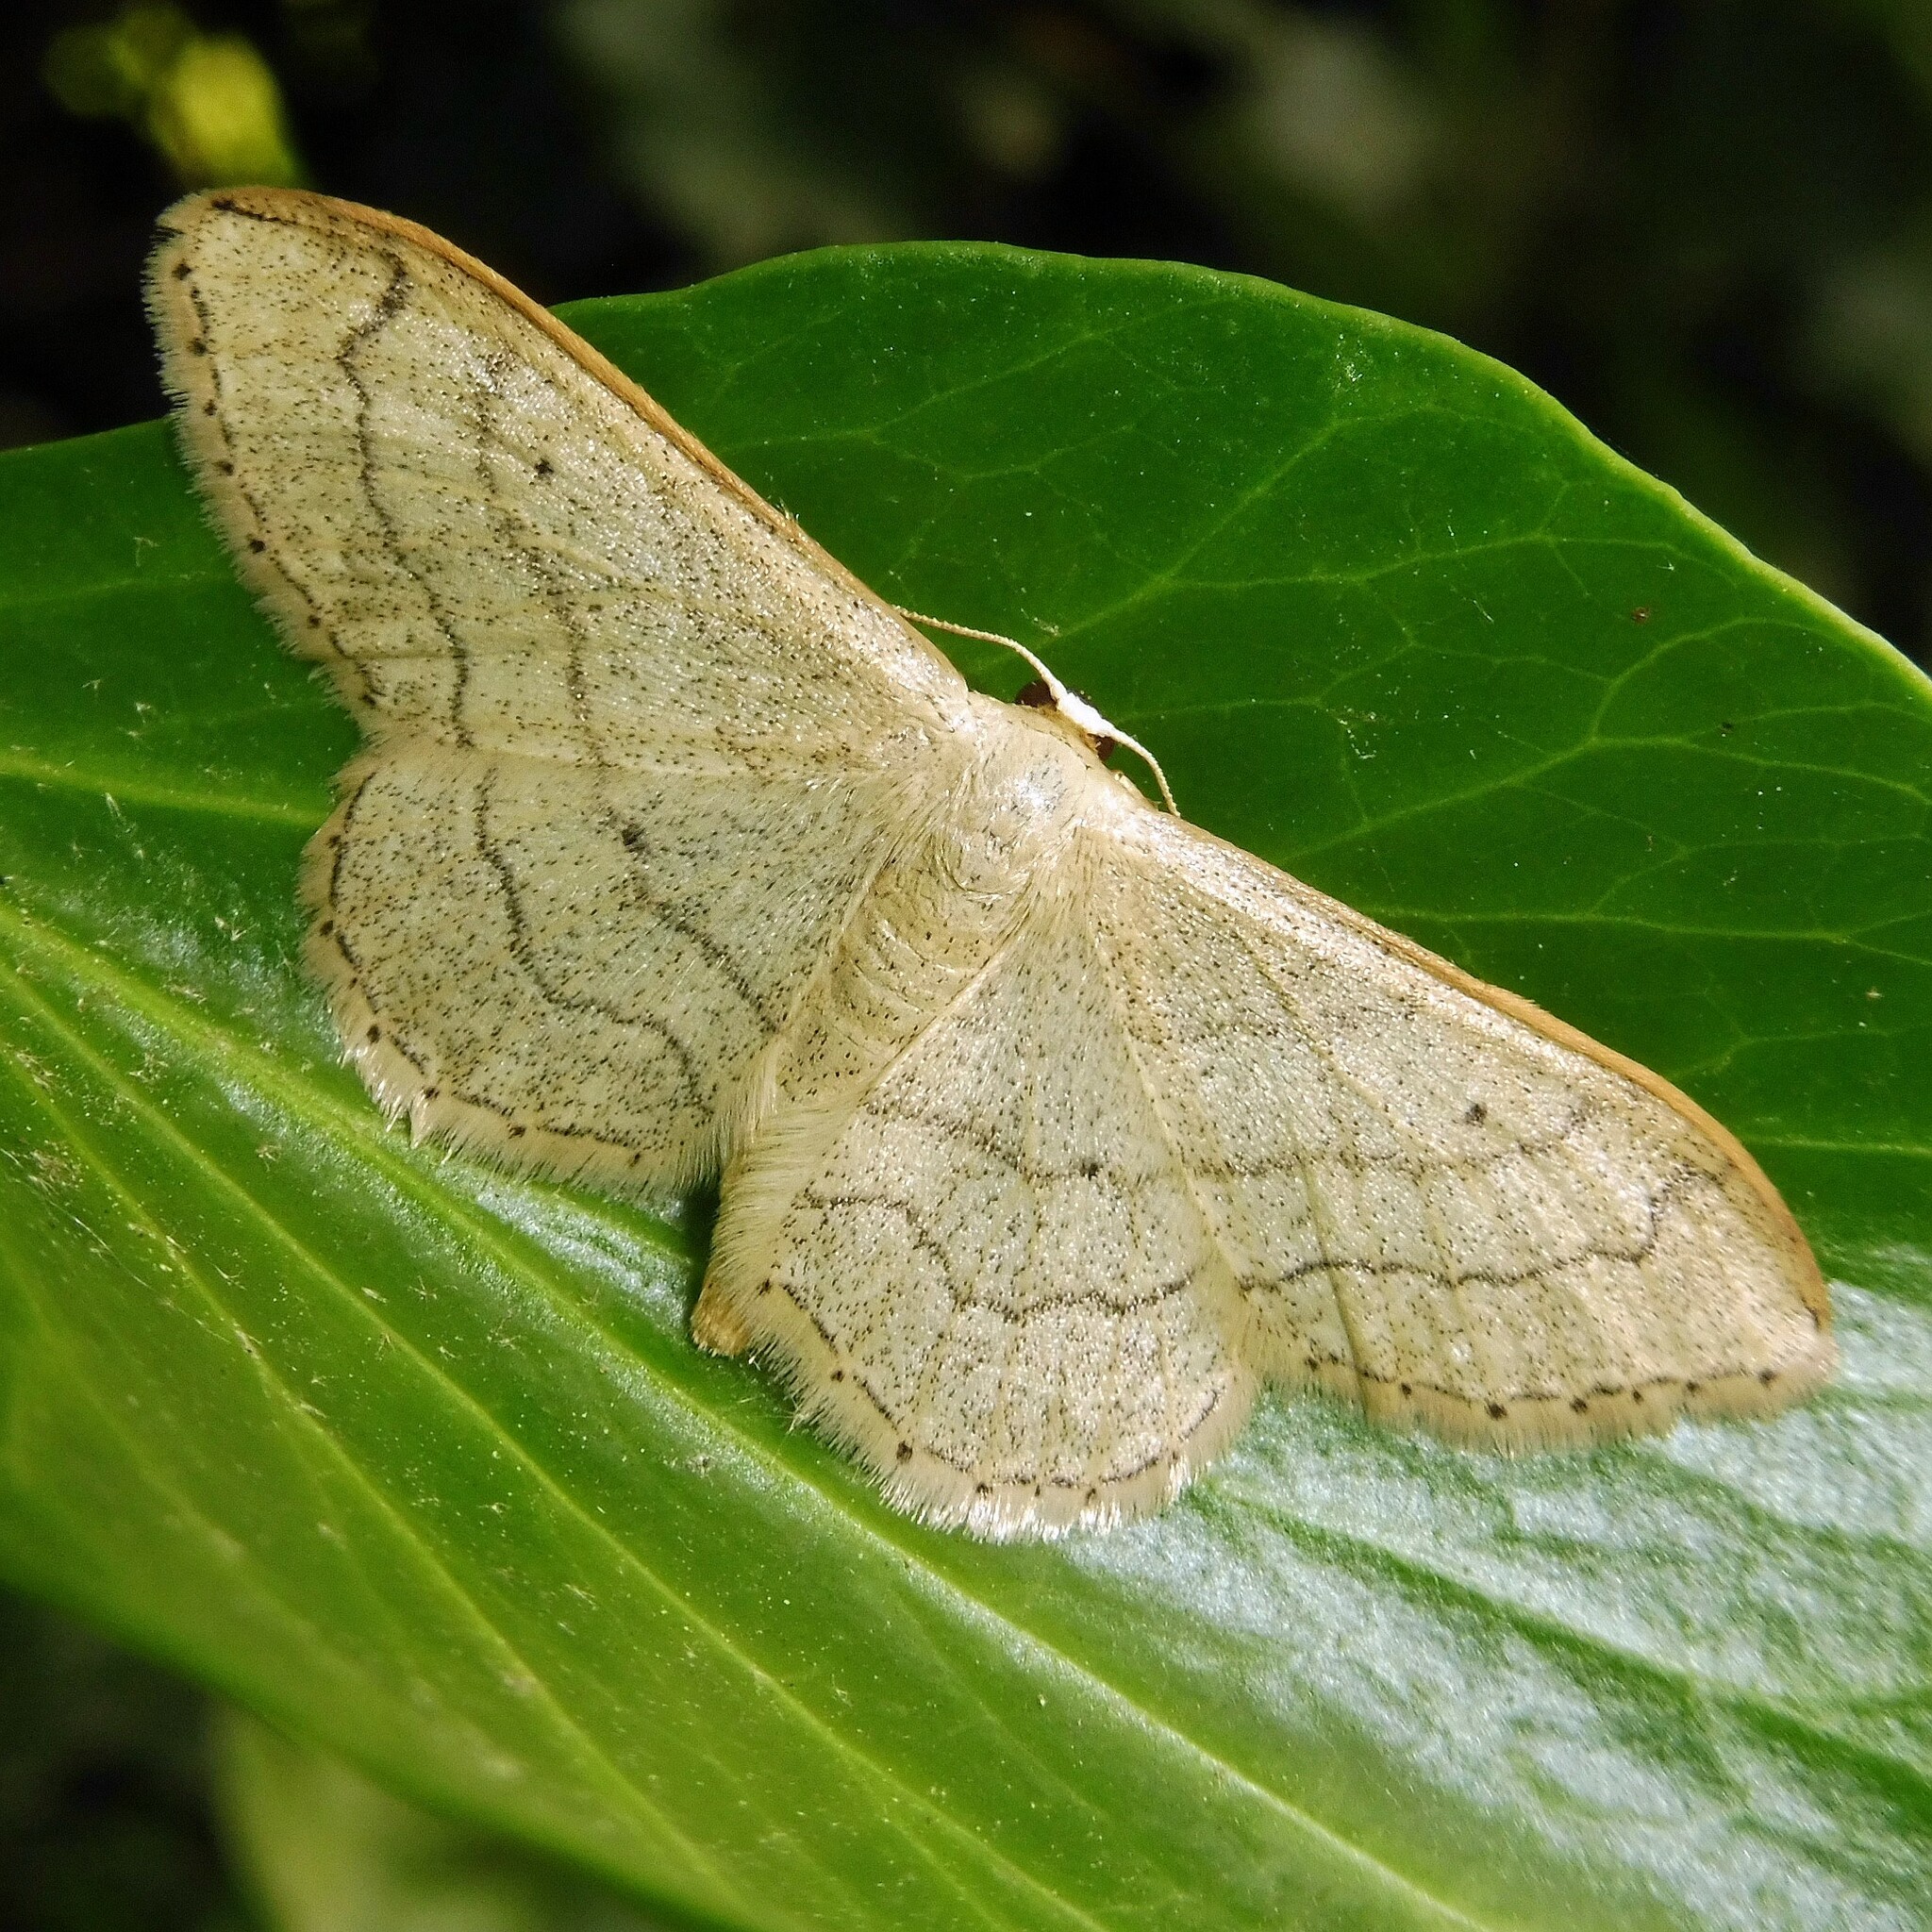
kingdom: Animalia
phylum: Arthropoda
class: Insecta
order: Lepidoptera
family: Geometridae
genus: Idaea
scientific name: Idaea aversata
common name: Riband wave
